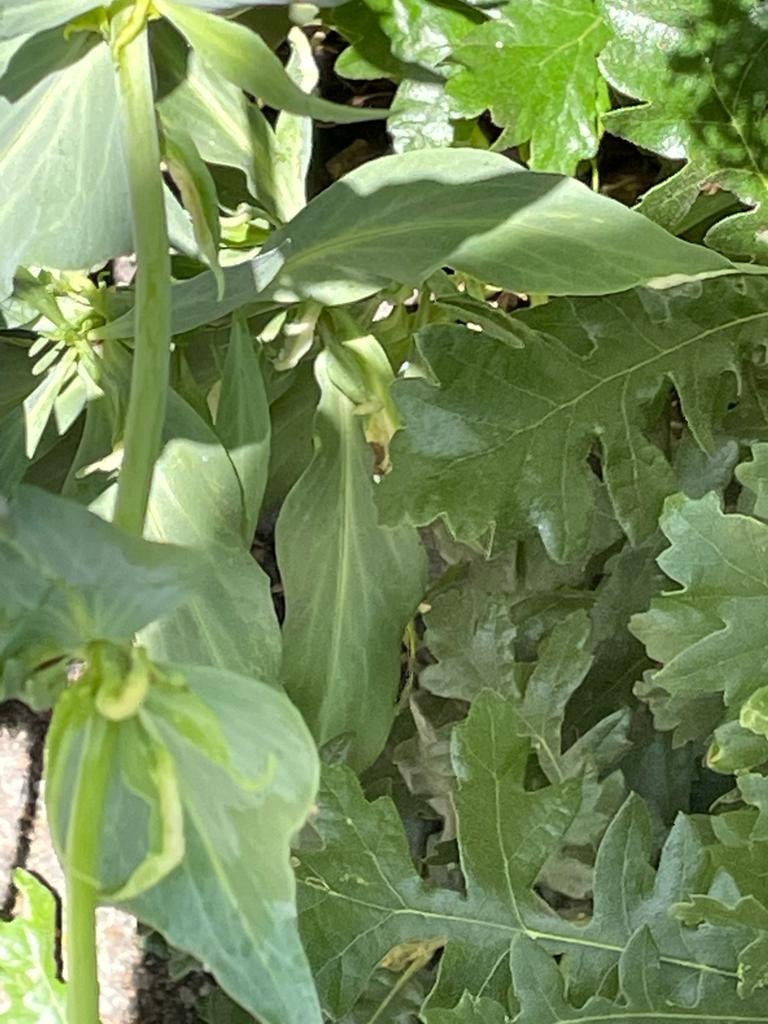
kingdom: Plantae
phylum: Tracheophyta
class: Magnoliopsida
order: Dipsacales
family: Caprifoliaceae
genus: Centranthus
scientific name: Centranthus ruber
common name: Red valerian
